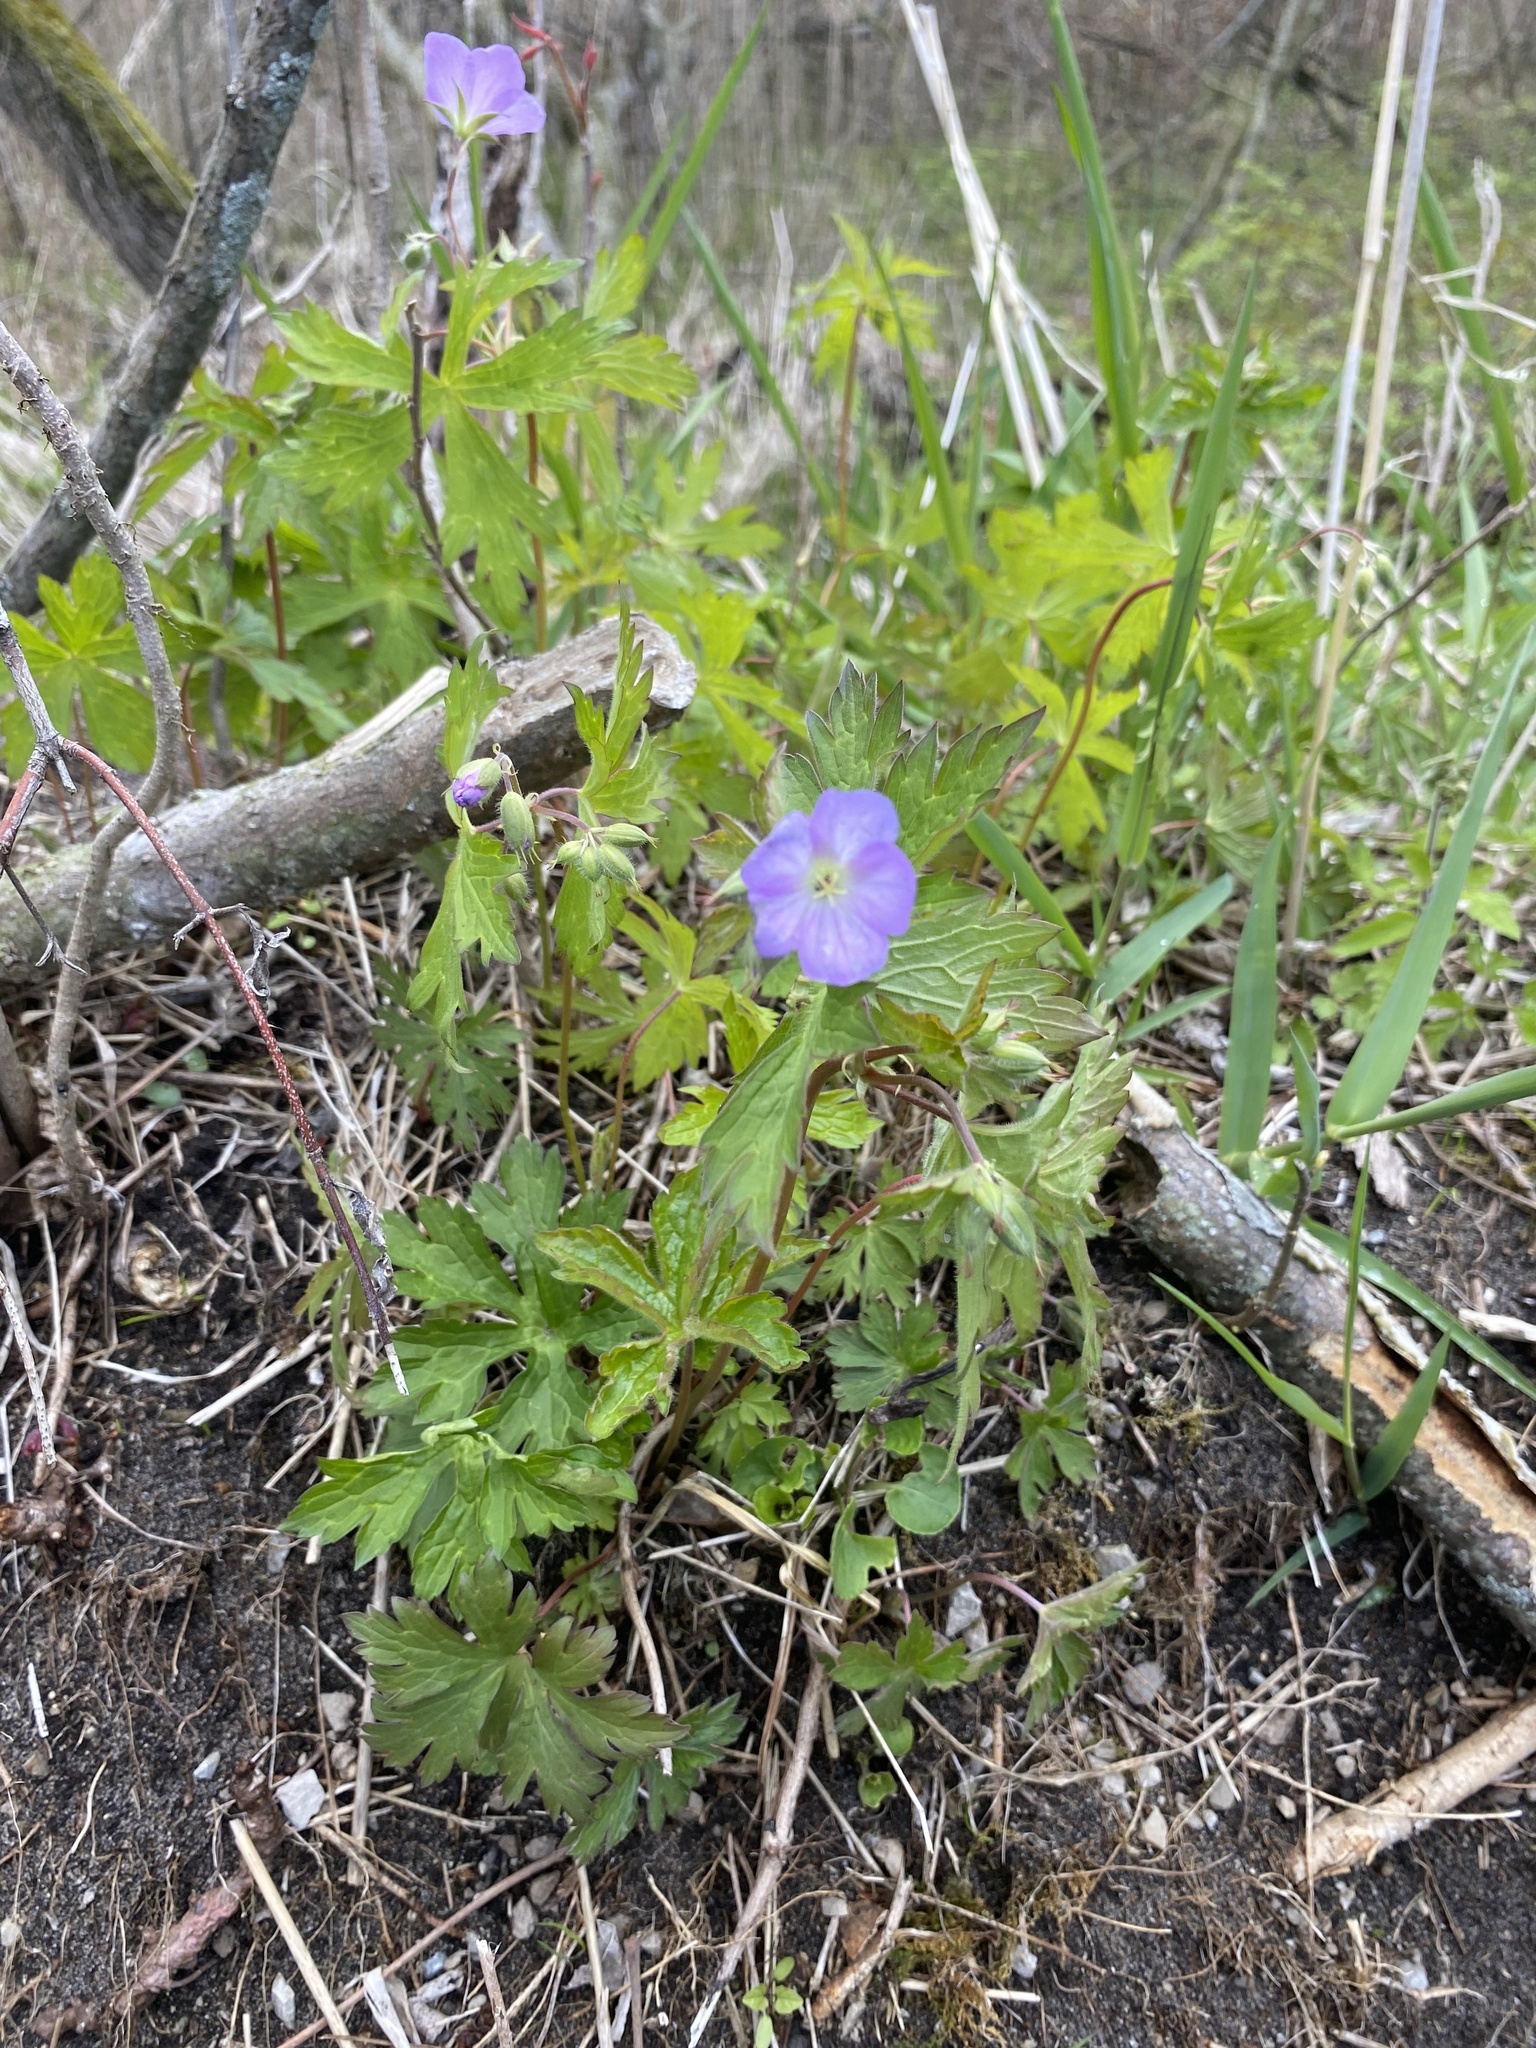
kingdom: Plantae
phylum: Tracheophyta
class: Magnoliopsida
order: Geraniales
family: Geraniaceae
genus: Geranium
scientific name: Geranium maculatum
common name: Spotted geranium
